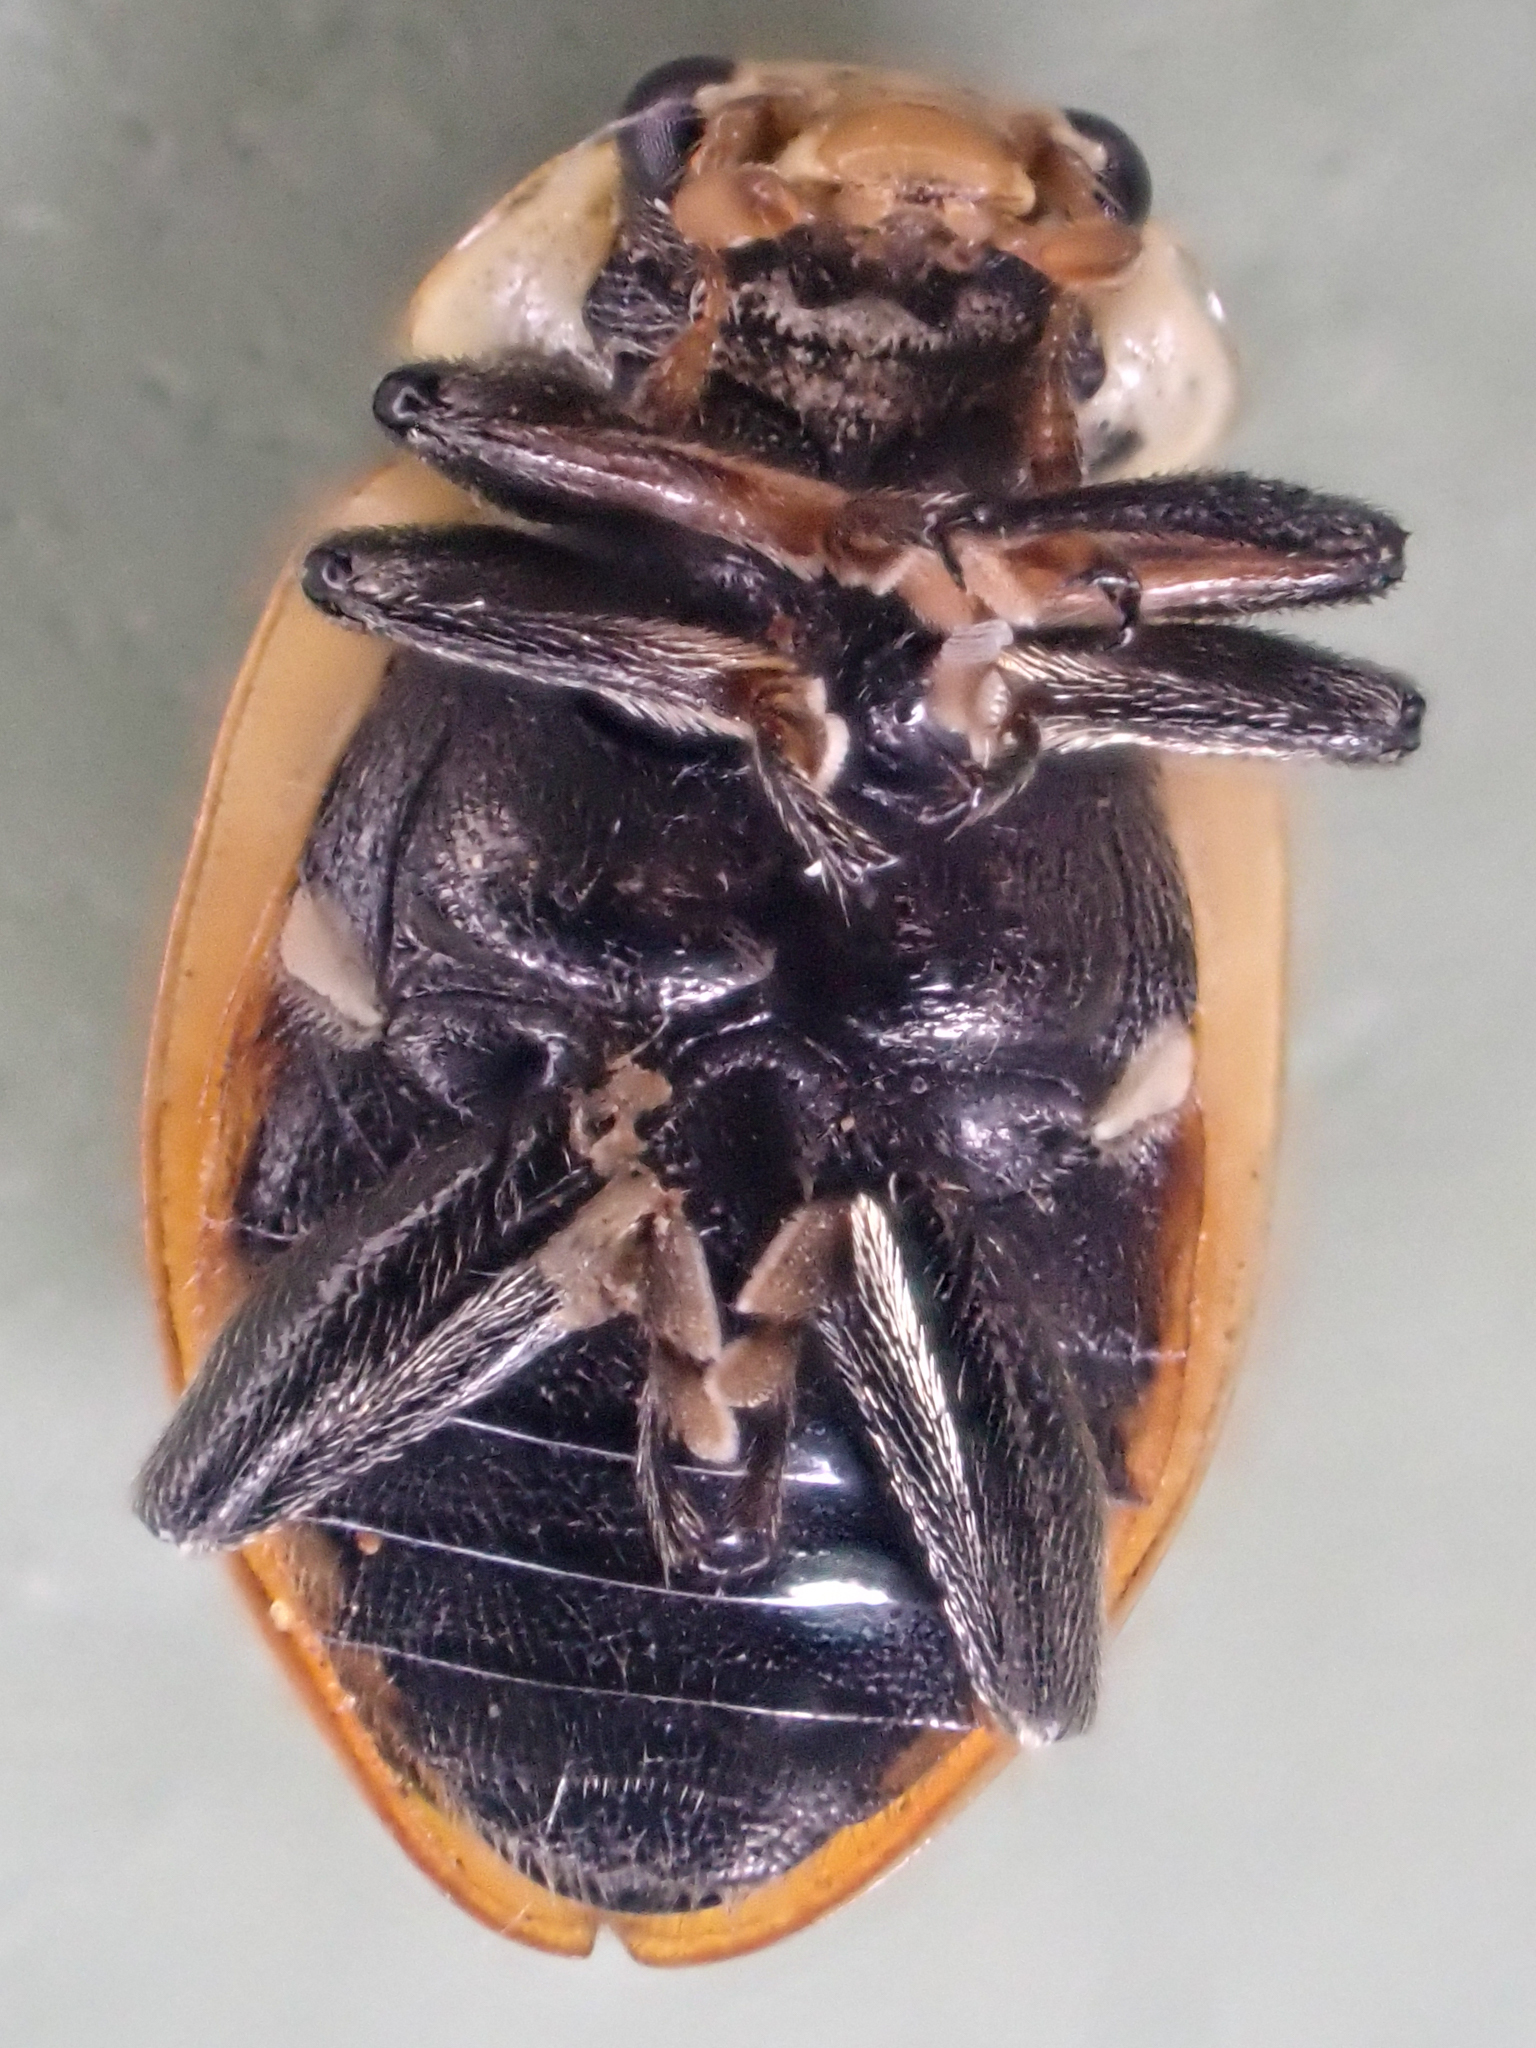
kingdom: Animalia
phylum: Arthropoda
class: Insecta
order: Coleoptera
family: Coccinellidae
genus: Hippodamia
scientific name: Hippodamia parenthesis
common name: Parenthesis lady beetle
